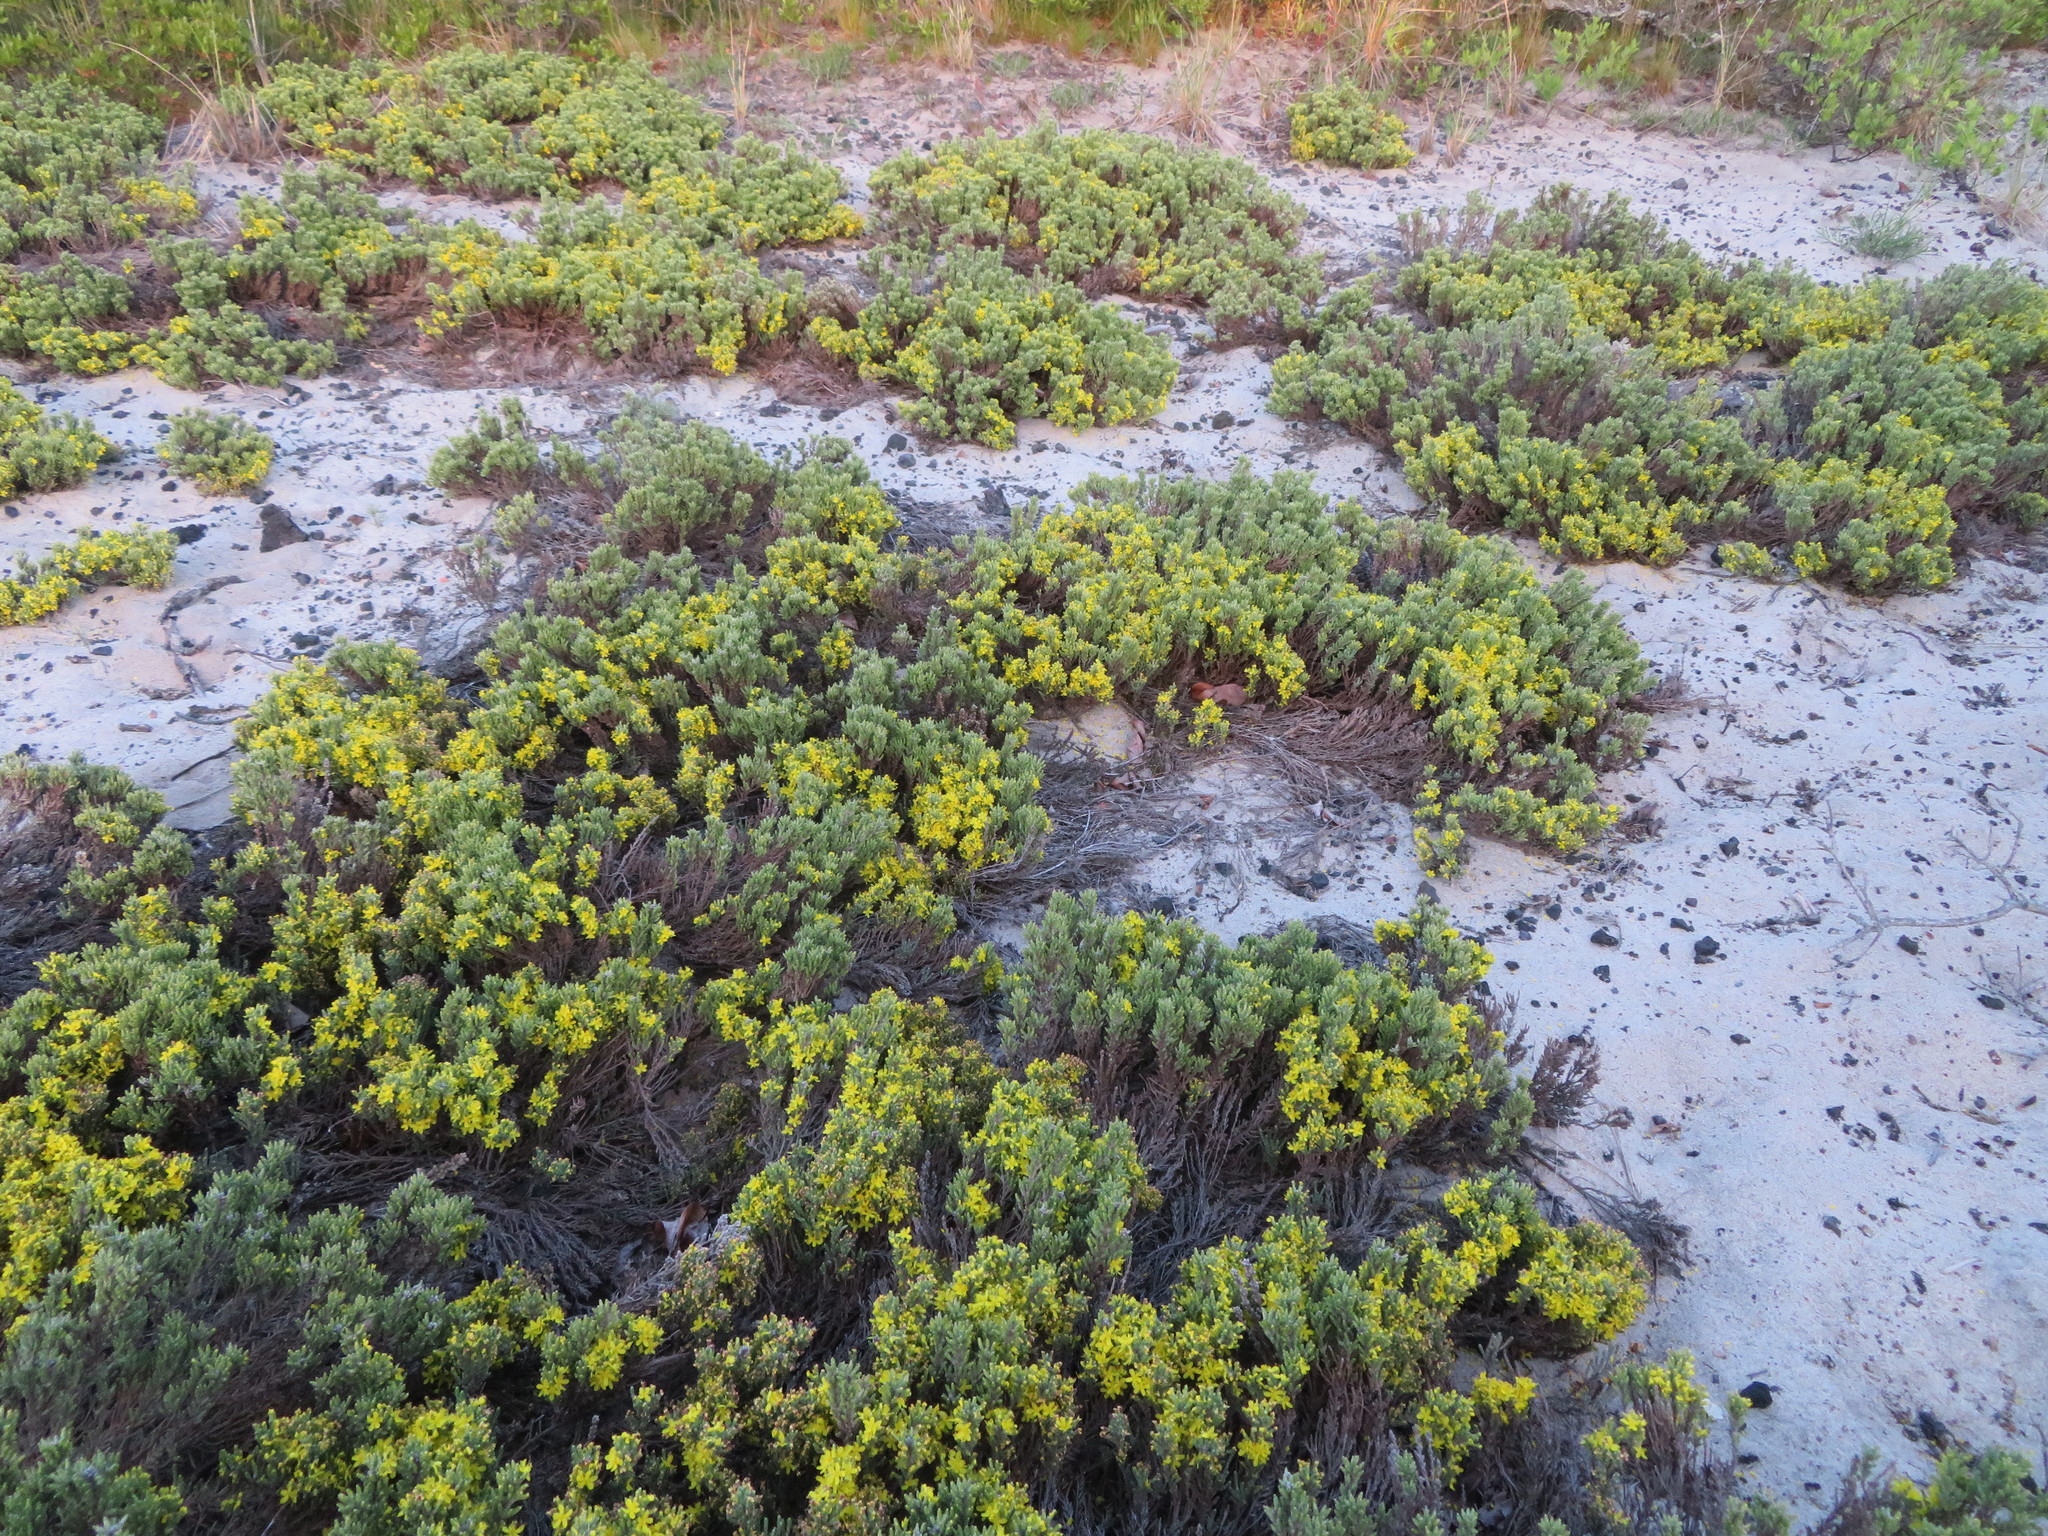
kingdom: Plantae
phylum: Tracheophyta
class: Magnoliopsida
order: Malvales
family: Cistaceae
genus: Hudsonia
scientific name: Hudsonia tomentosa
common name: Beach-heath
